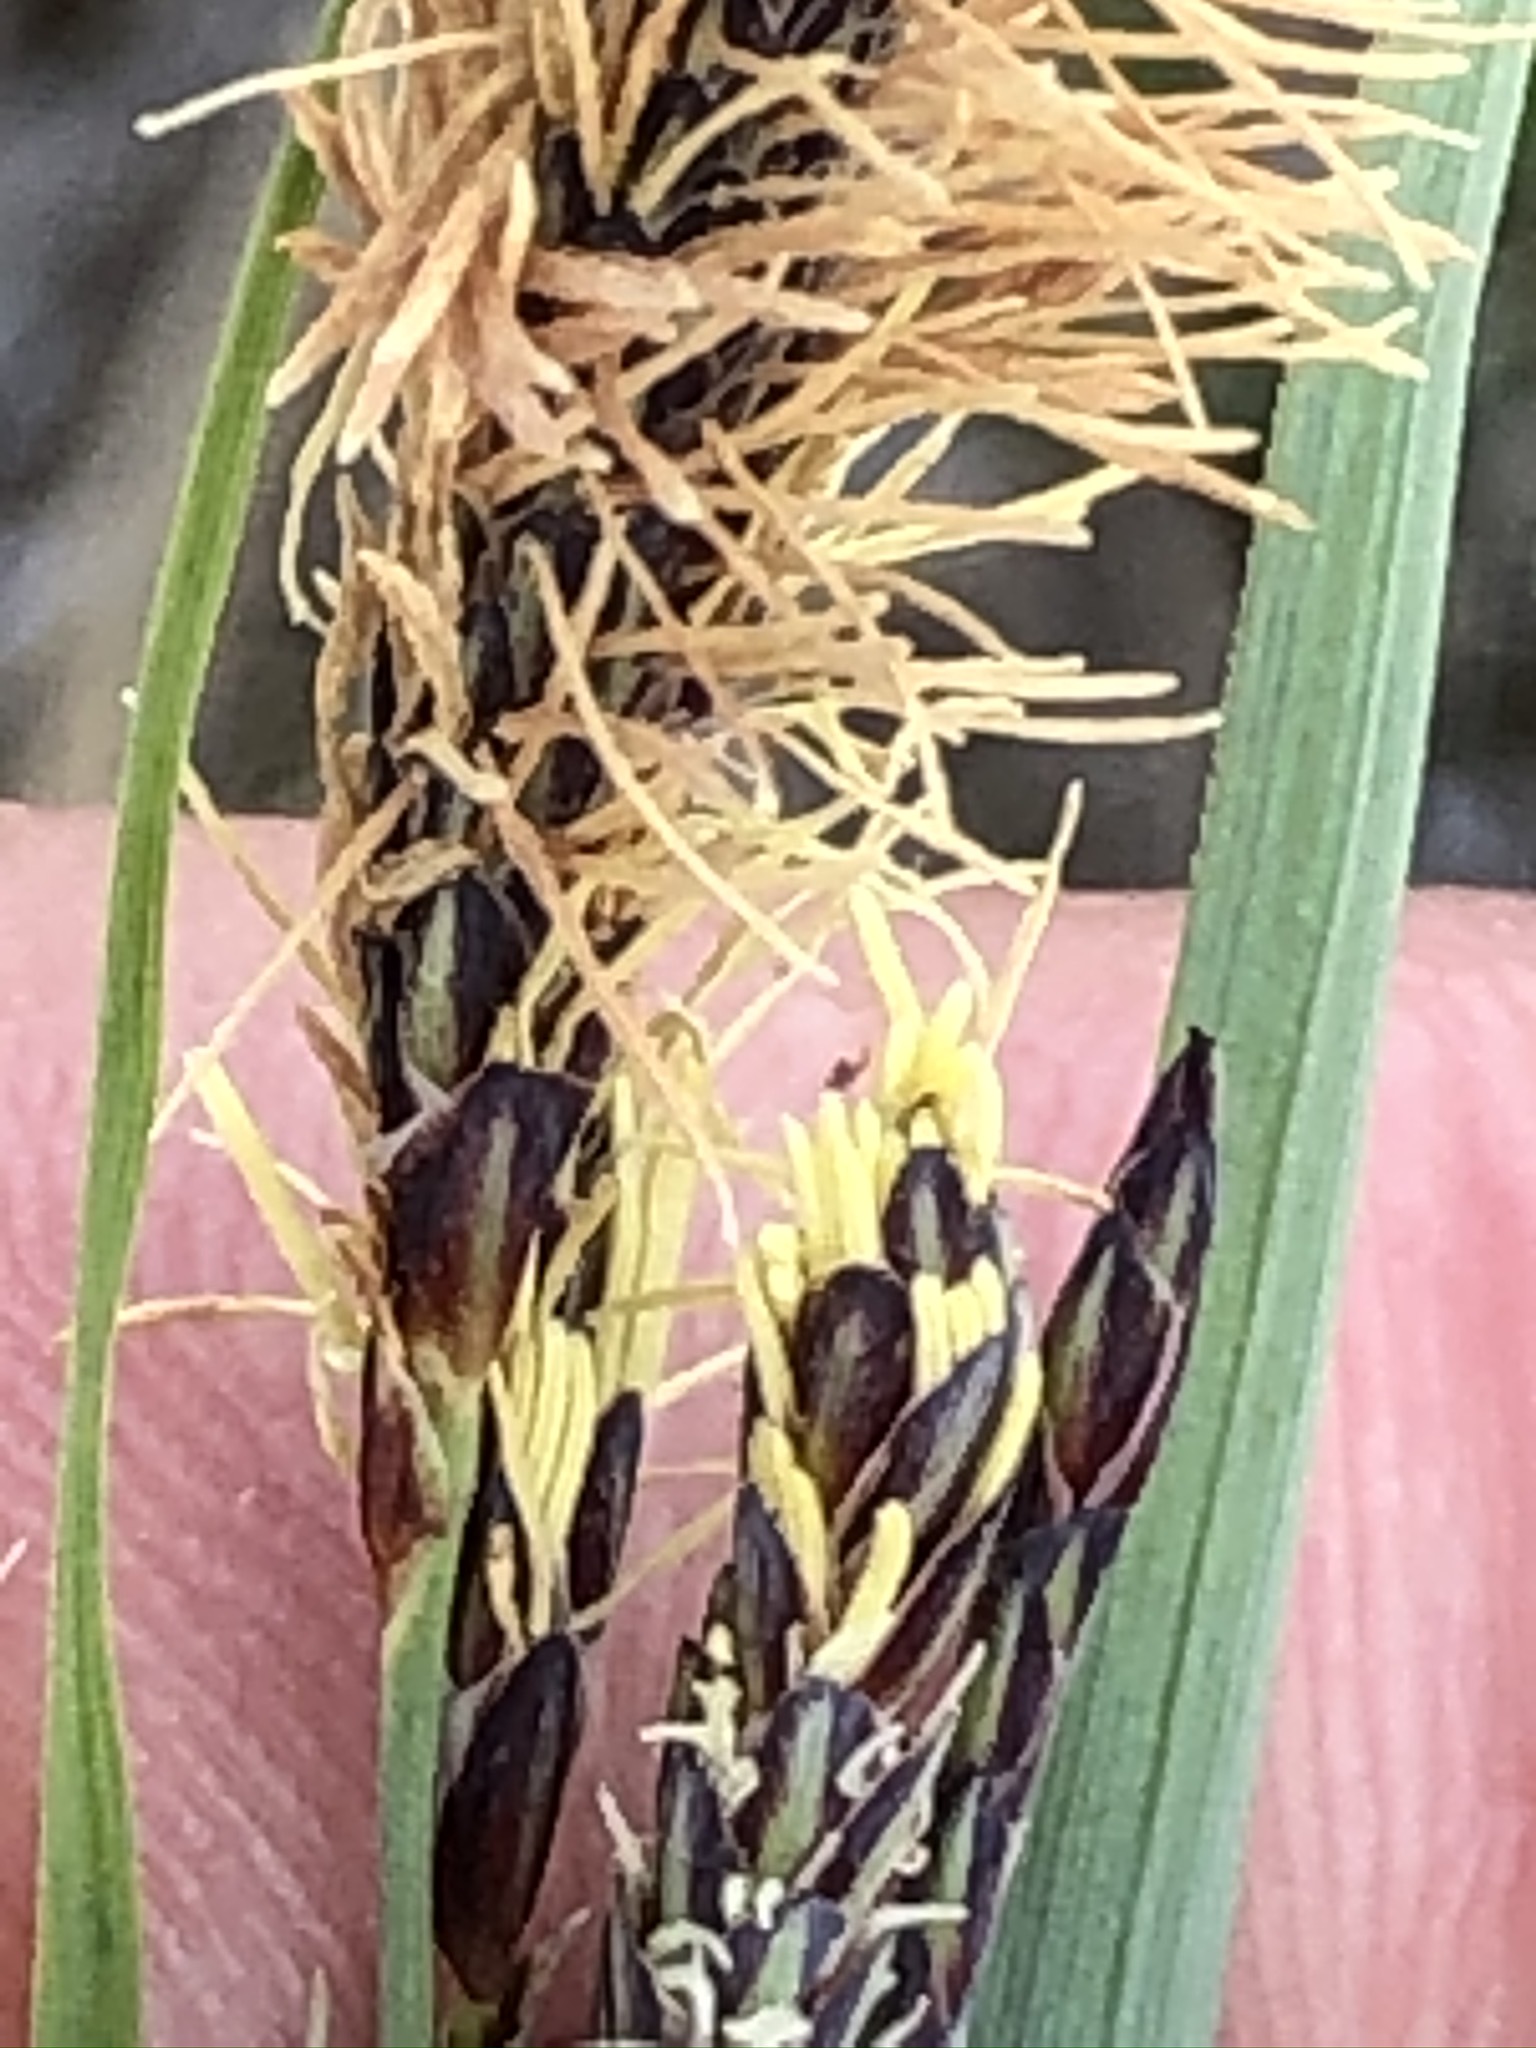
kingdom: Plantae
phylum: Tracheophyta
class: Liliopsida
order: Poales
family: Cyperaceae
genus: Carex
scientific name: Carex flacca
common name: Glaucous sedge
